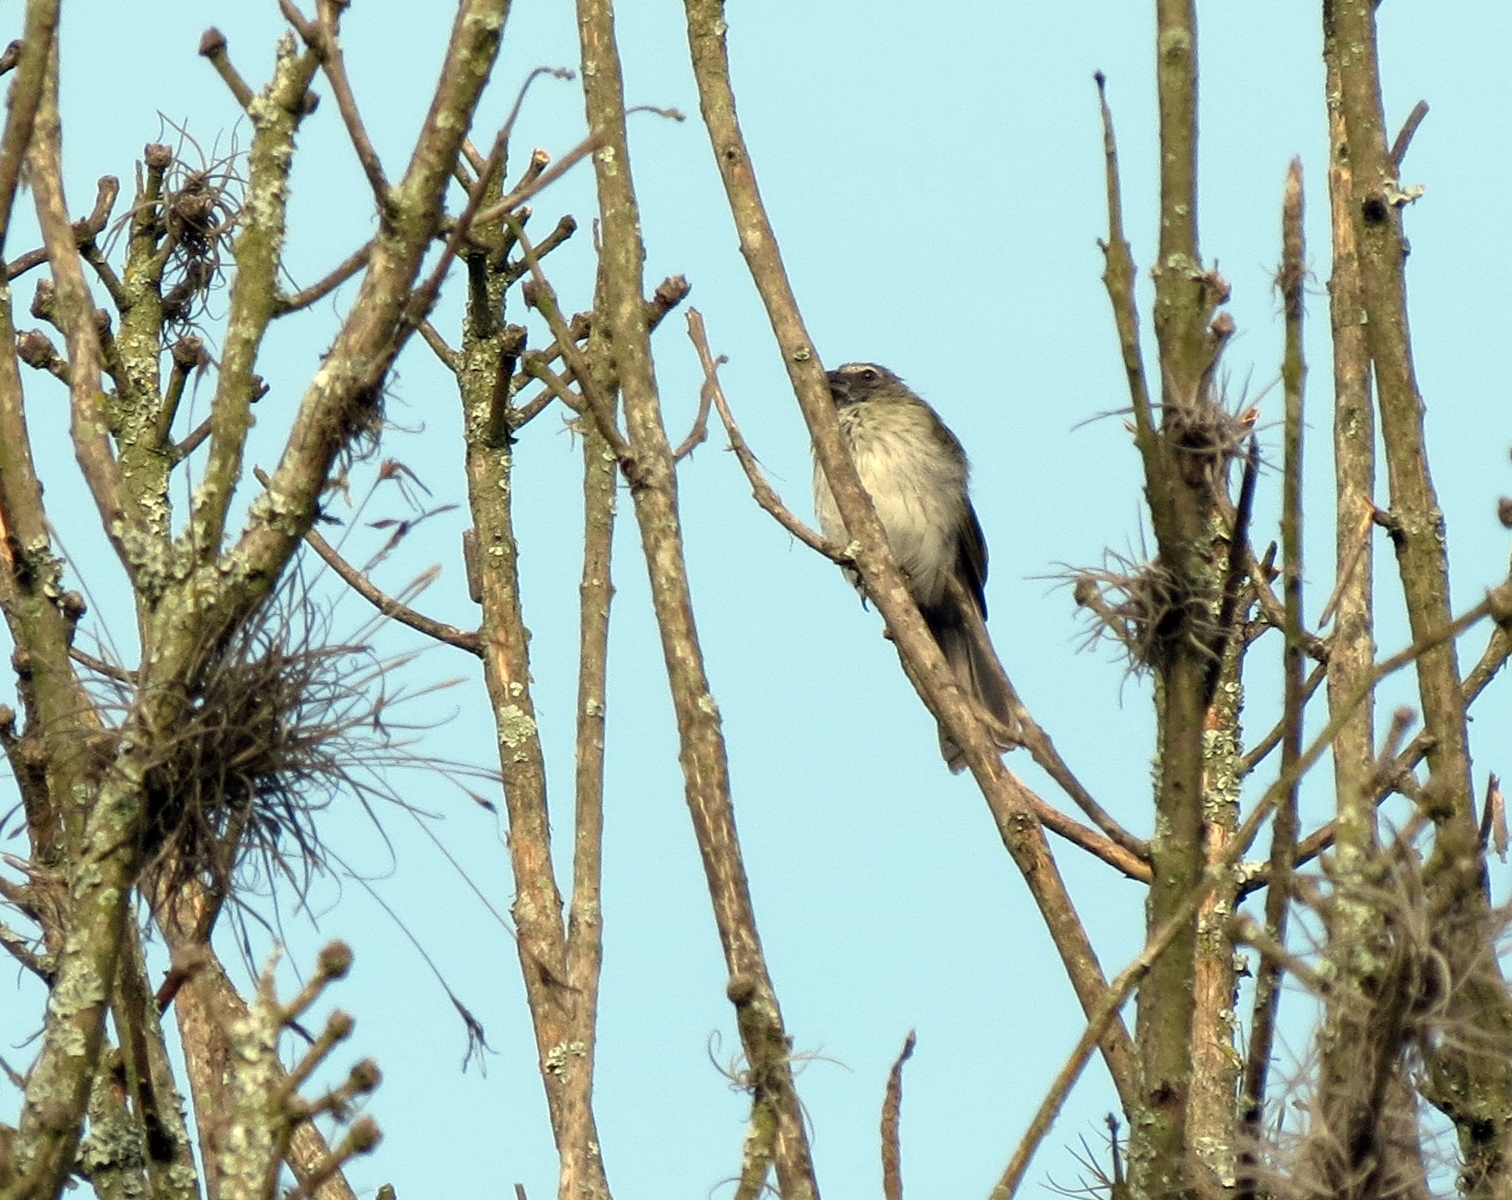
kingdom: Animalia
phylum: Chordata
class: Aves
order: Passeriformes
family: Thraupidae
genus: Saltator
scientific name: Saltator striatipectus
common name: Streaked saltator
